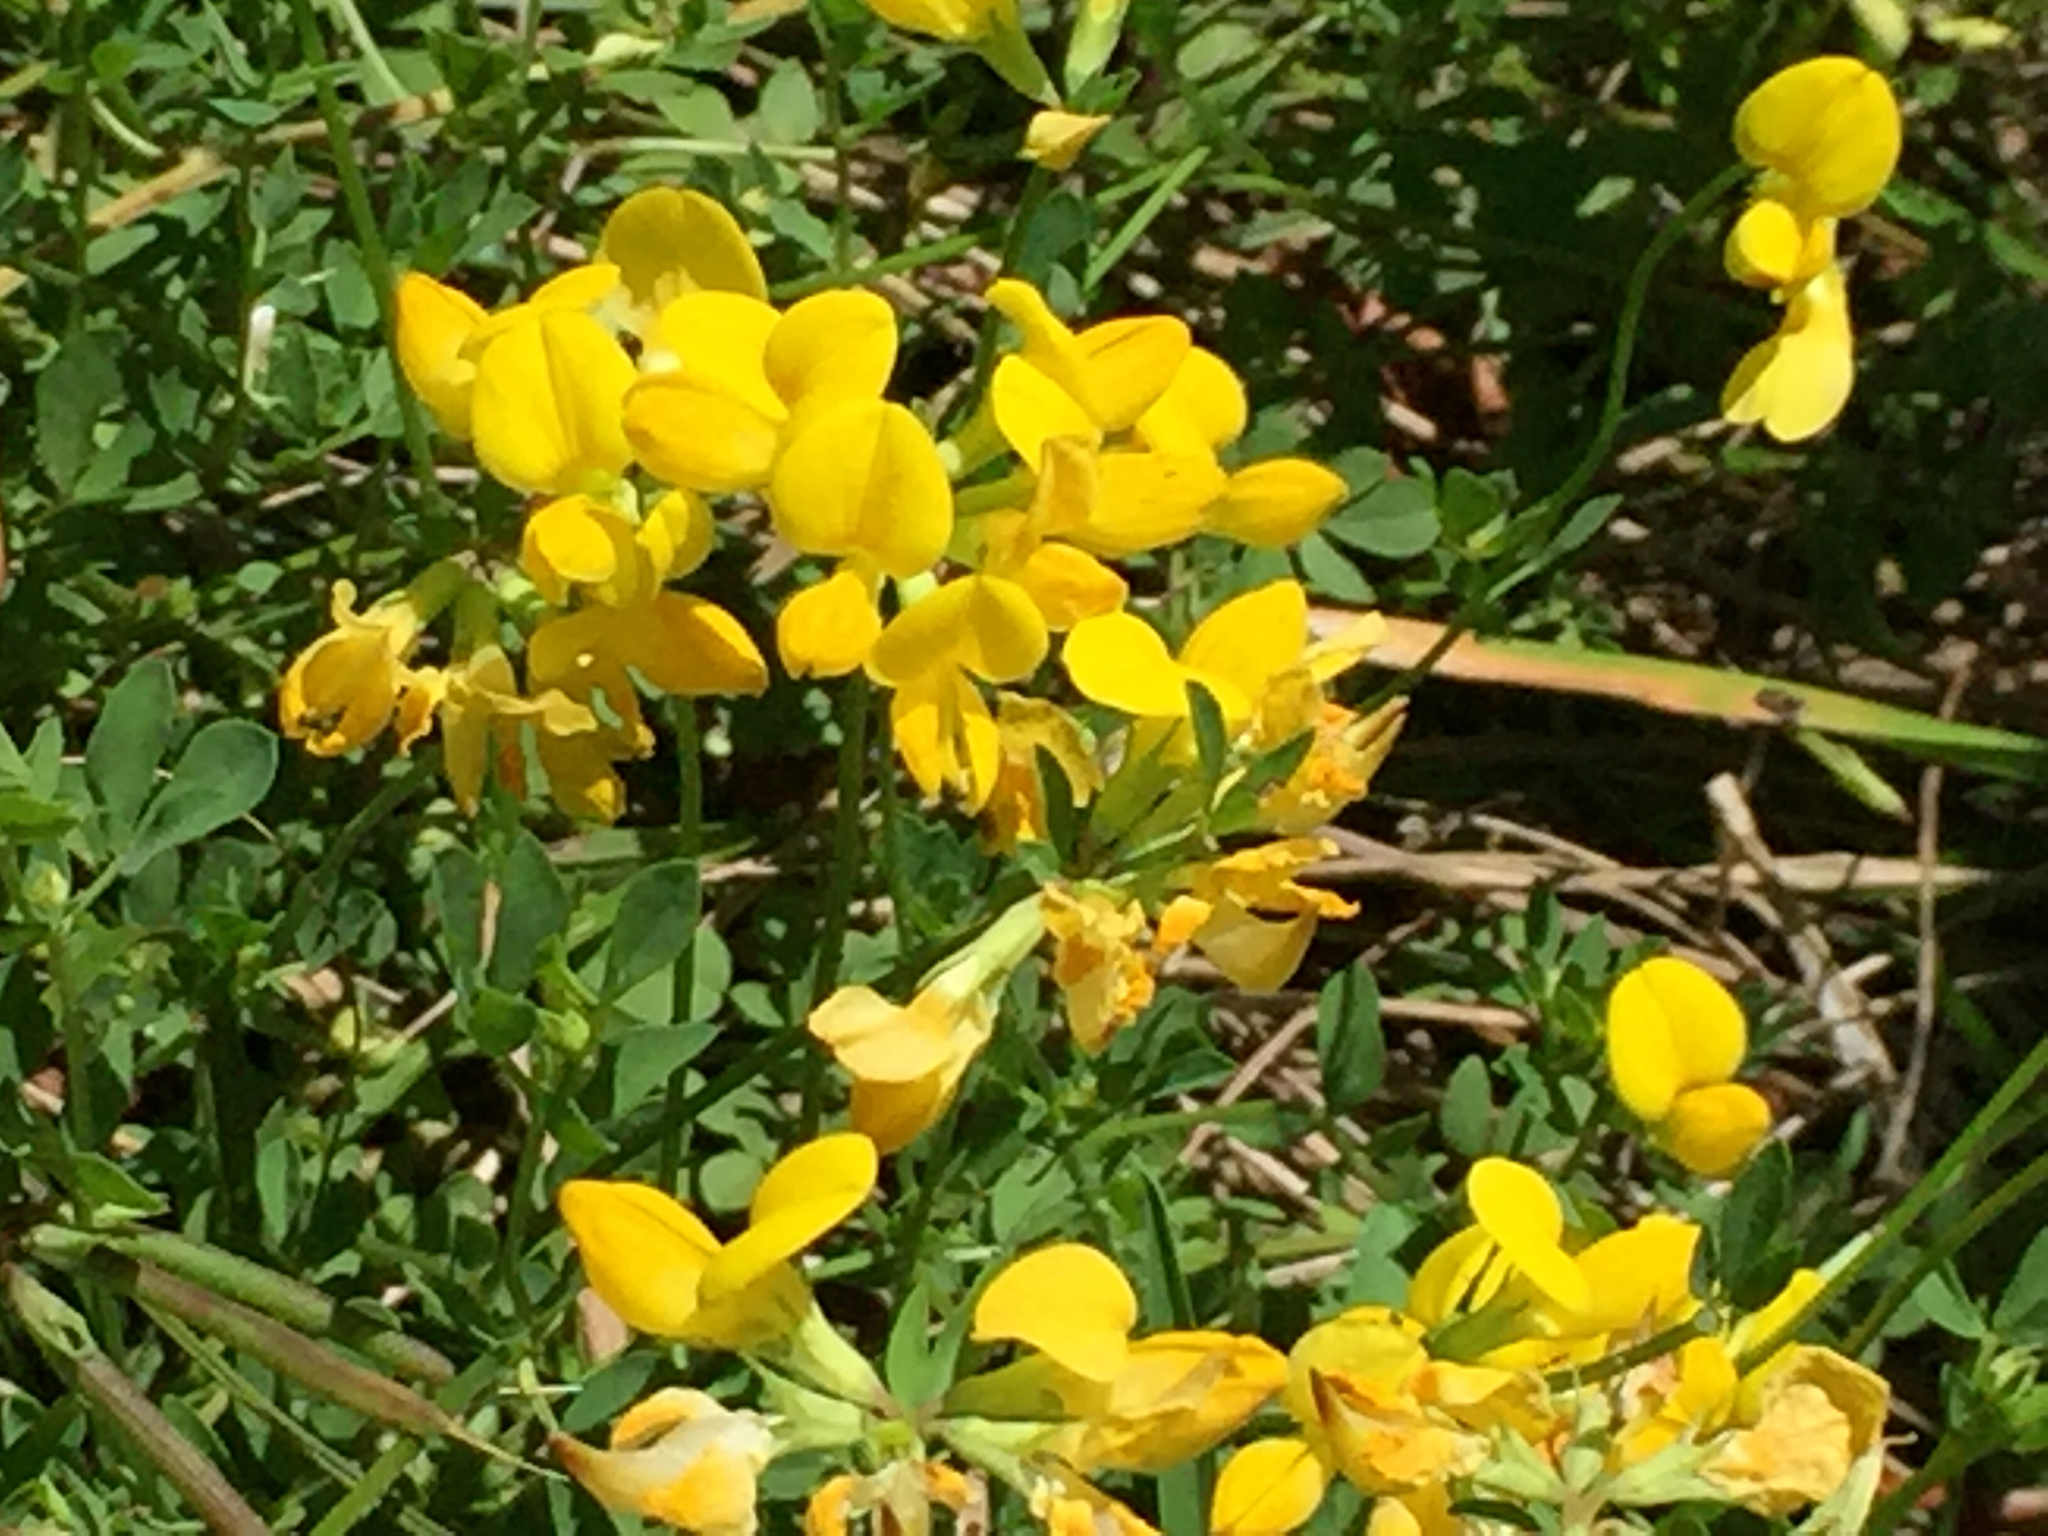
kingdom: Plantae
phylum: Tracheophyta
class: Magnoliopsida
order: Fabales
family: Fabaceae
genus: Lotus
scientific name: Lotus corniculatus
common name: Common bird's-foot-trefoil
